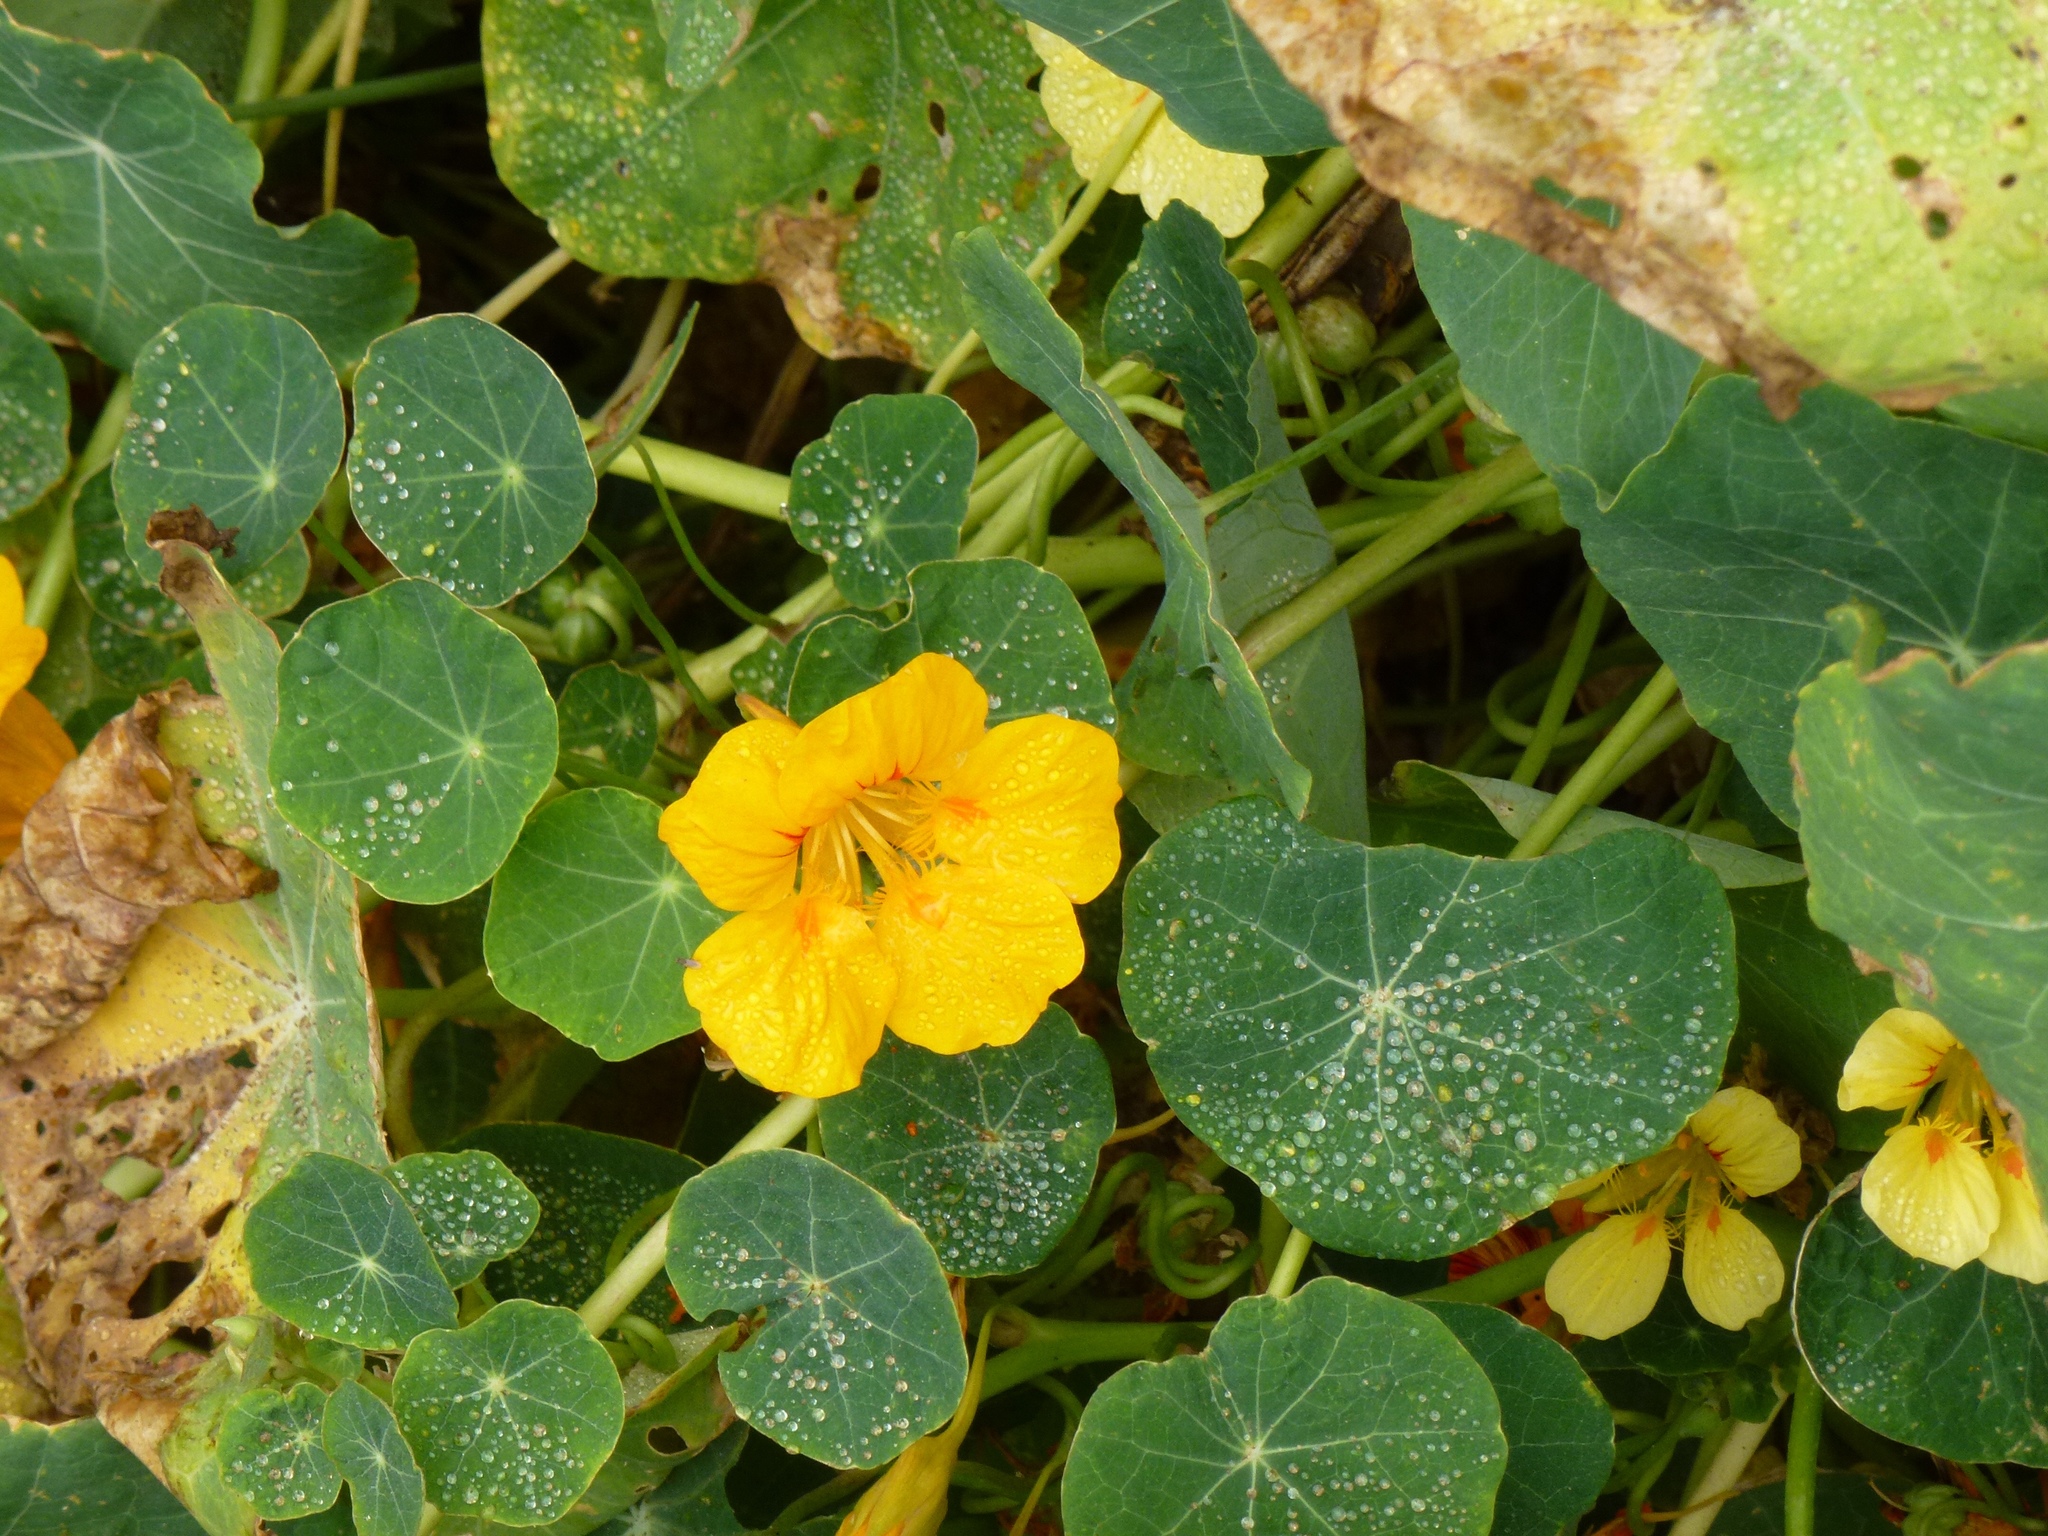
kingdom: Plantae
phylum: Tracheophyta
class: Magnoliopsida
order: Brassicales
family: Tropaeolaceae
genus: Tropaeolum
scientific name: Tropaeolum majus
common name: Nasturtium
